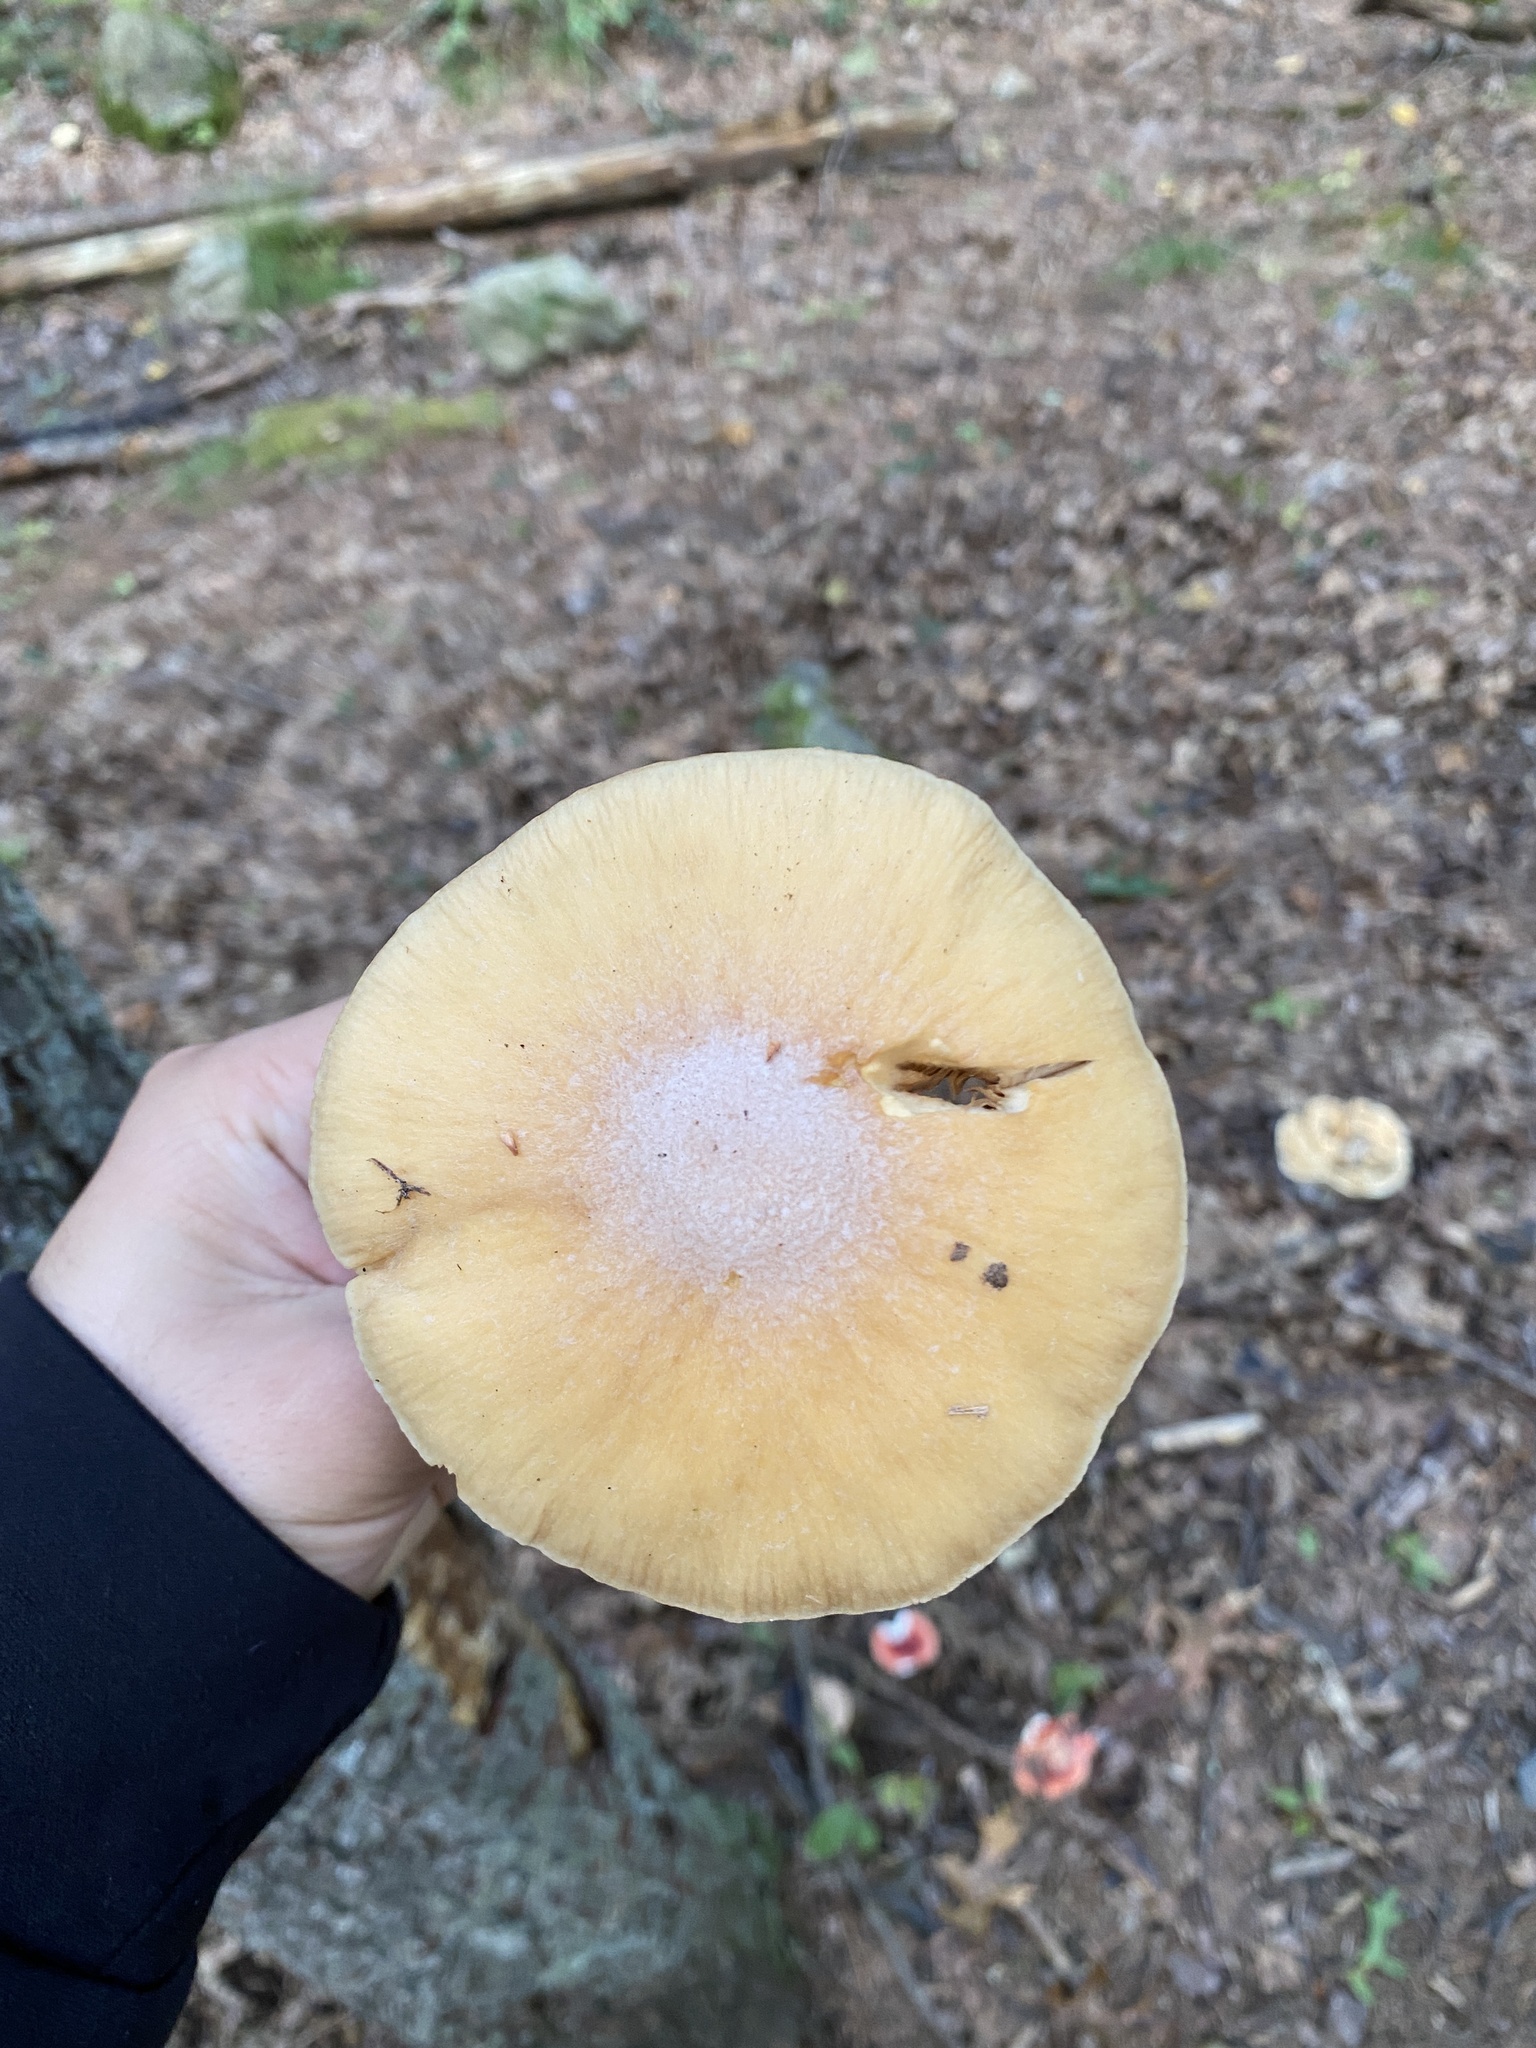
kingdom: Fungi
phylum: Basidiomycota
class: Agaricomycetes
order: Agaricales
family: Cortinariaceae
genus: Cortinarius
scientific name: Cortinarius caperatus
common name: The gypsy
